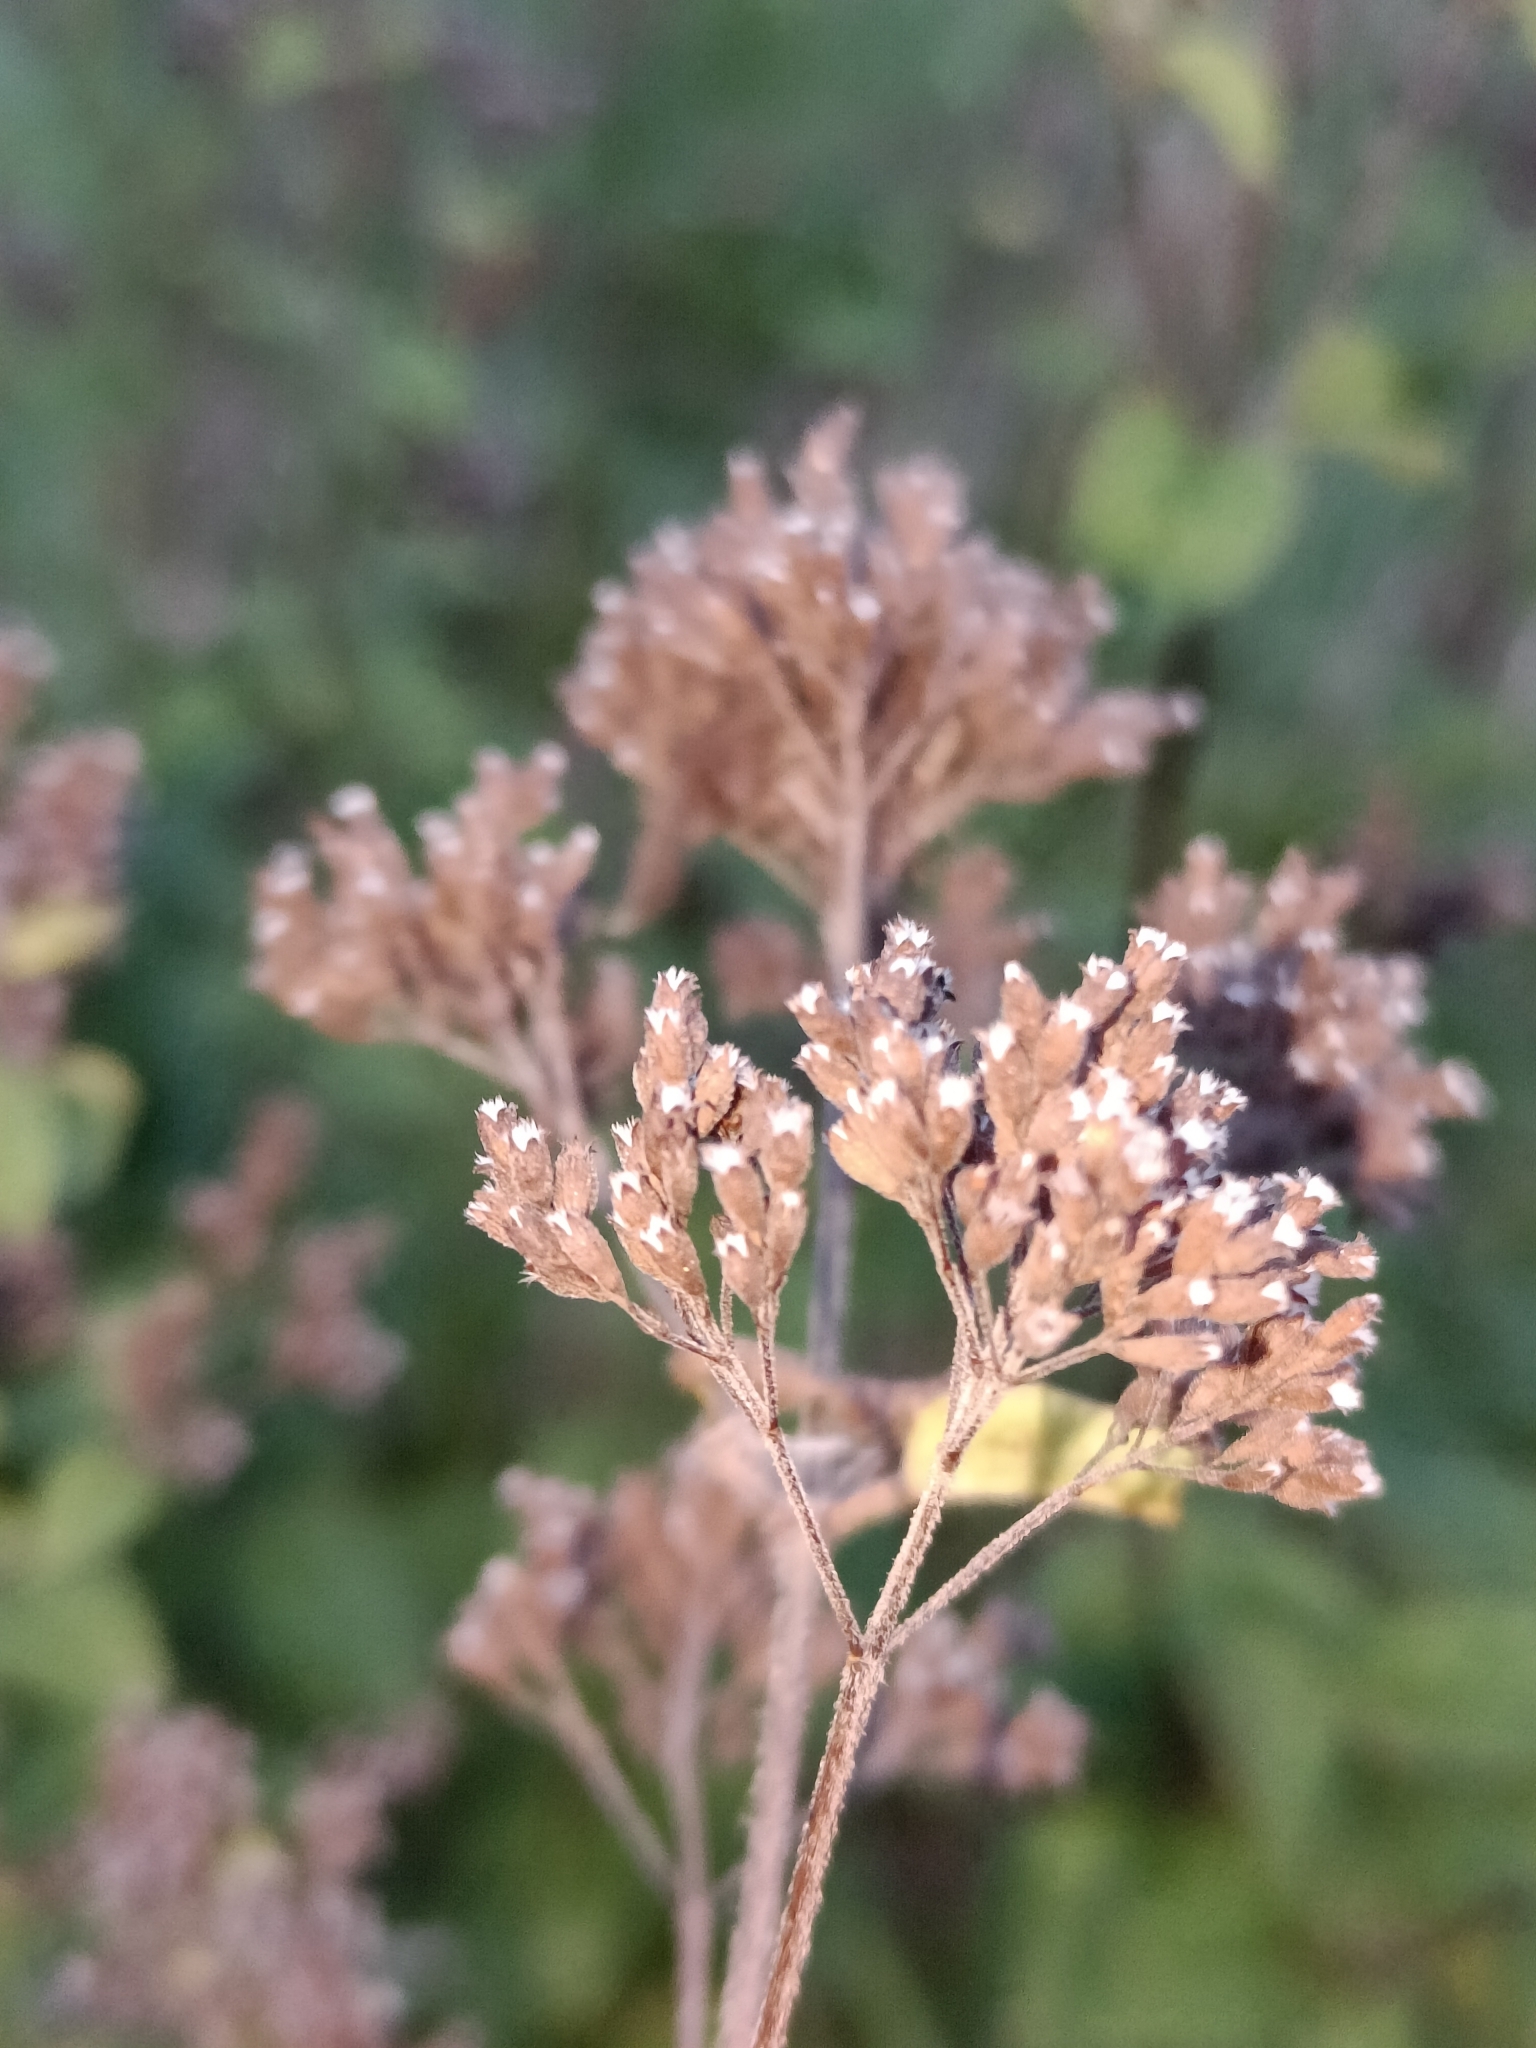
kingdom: Plantae
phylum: Tracheophyta
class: Magnoliopsida
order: Lamiales
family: Lamiaceae
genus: Origanum
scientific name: Origanum vulgare
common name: Wild marjoram
